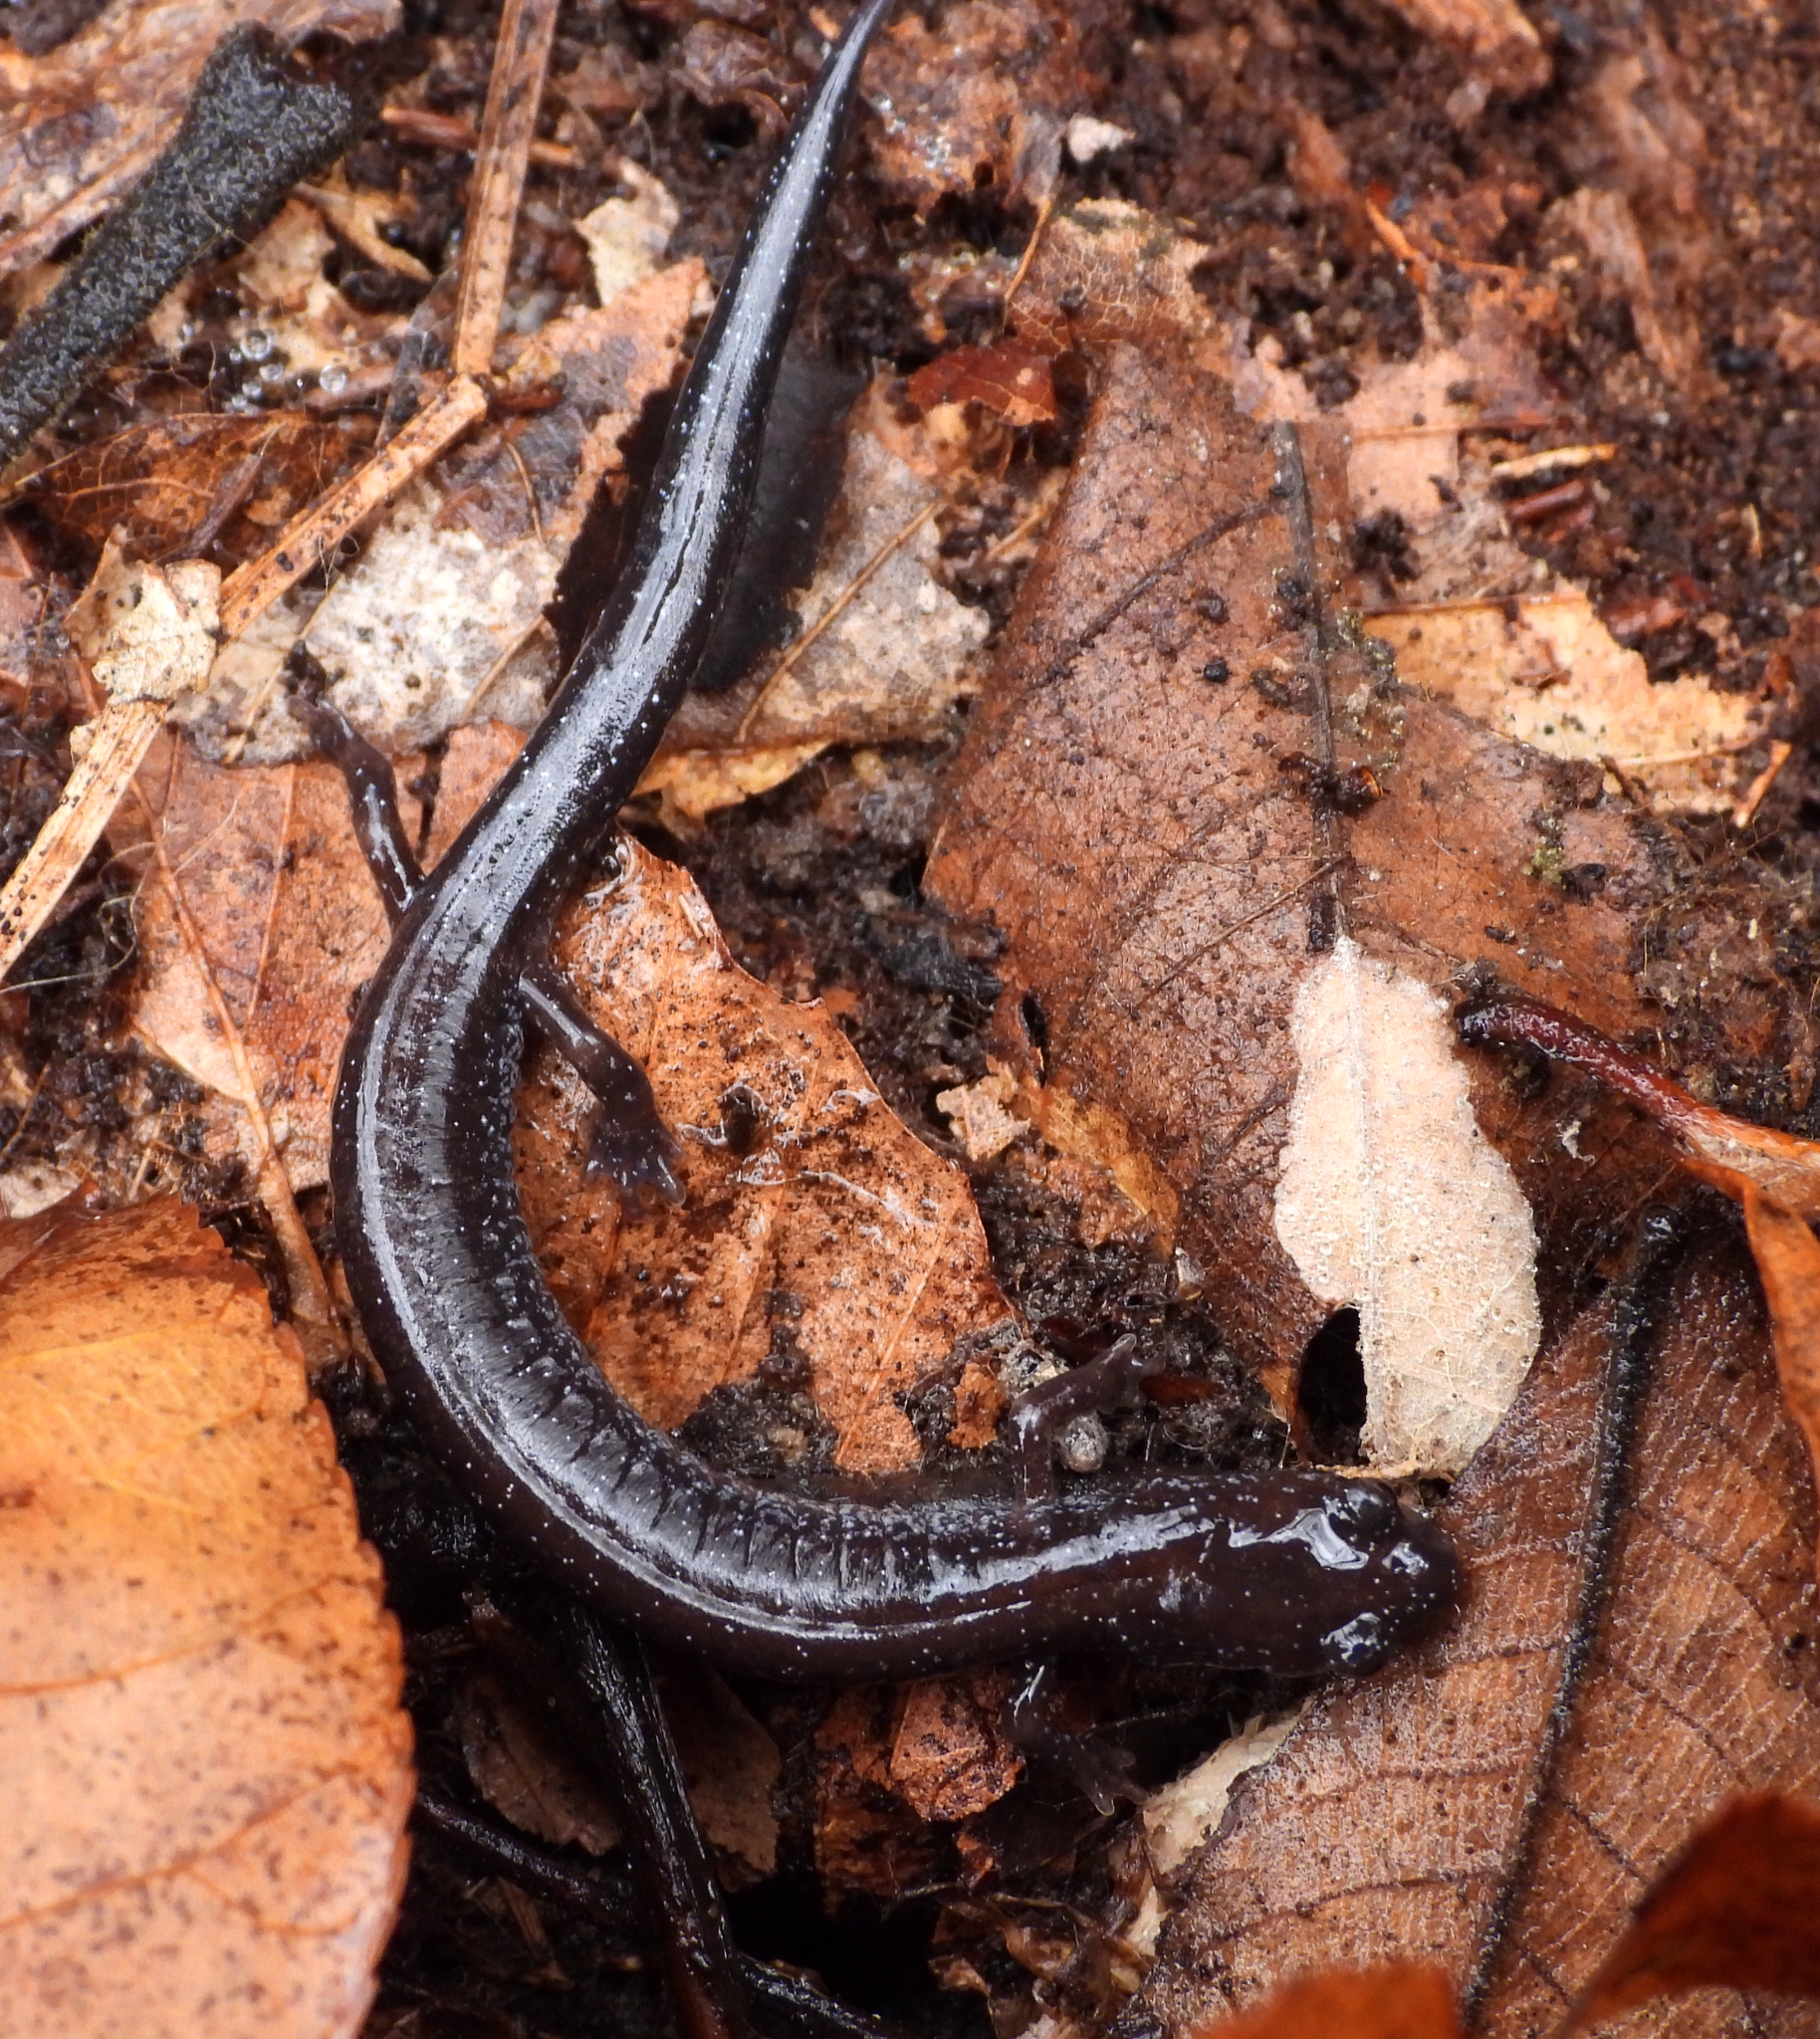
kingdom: Animalia
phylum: Chordata
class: Amphibia
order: Caudata
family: Plethodontidae
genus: Plethodon
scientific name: Plethodon cinereus
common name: Redback salamander
